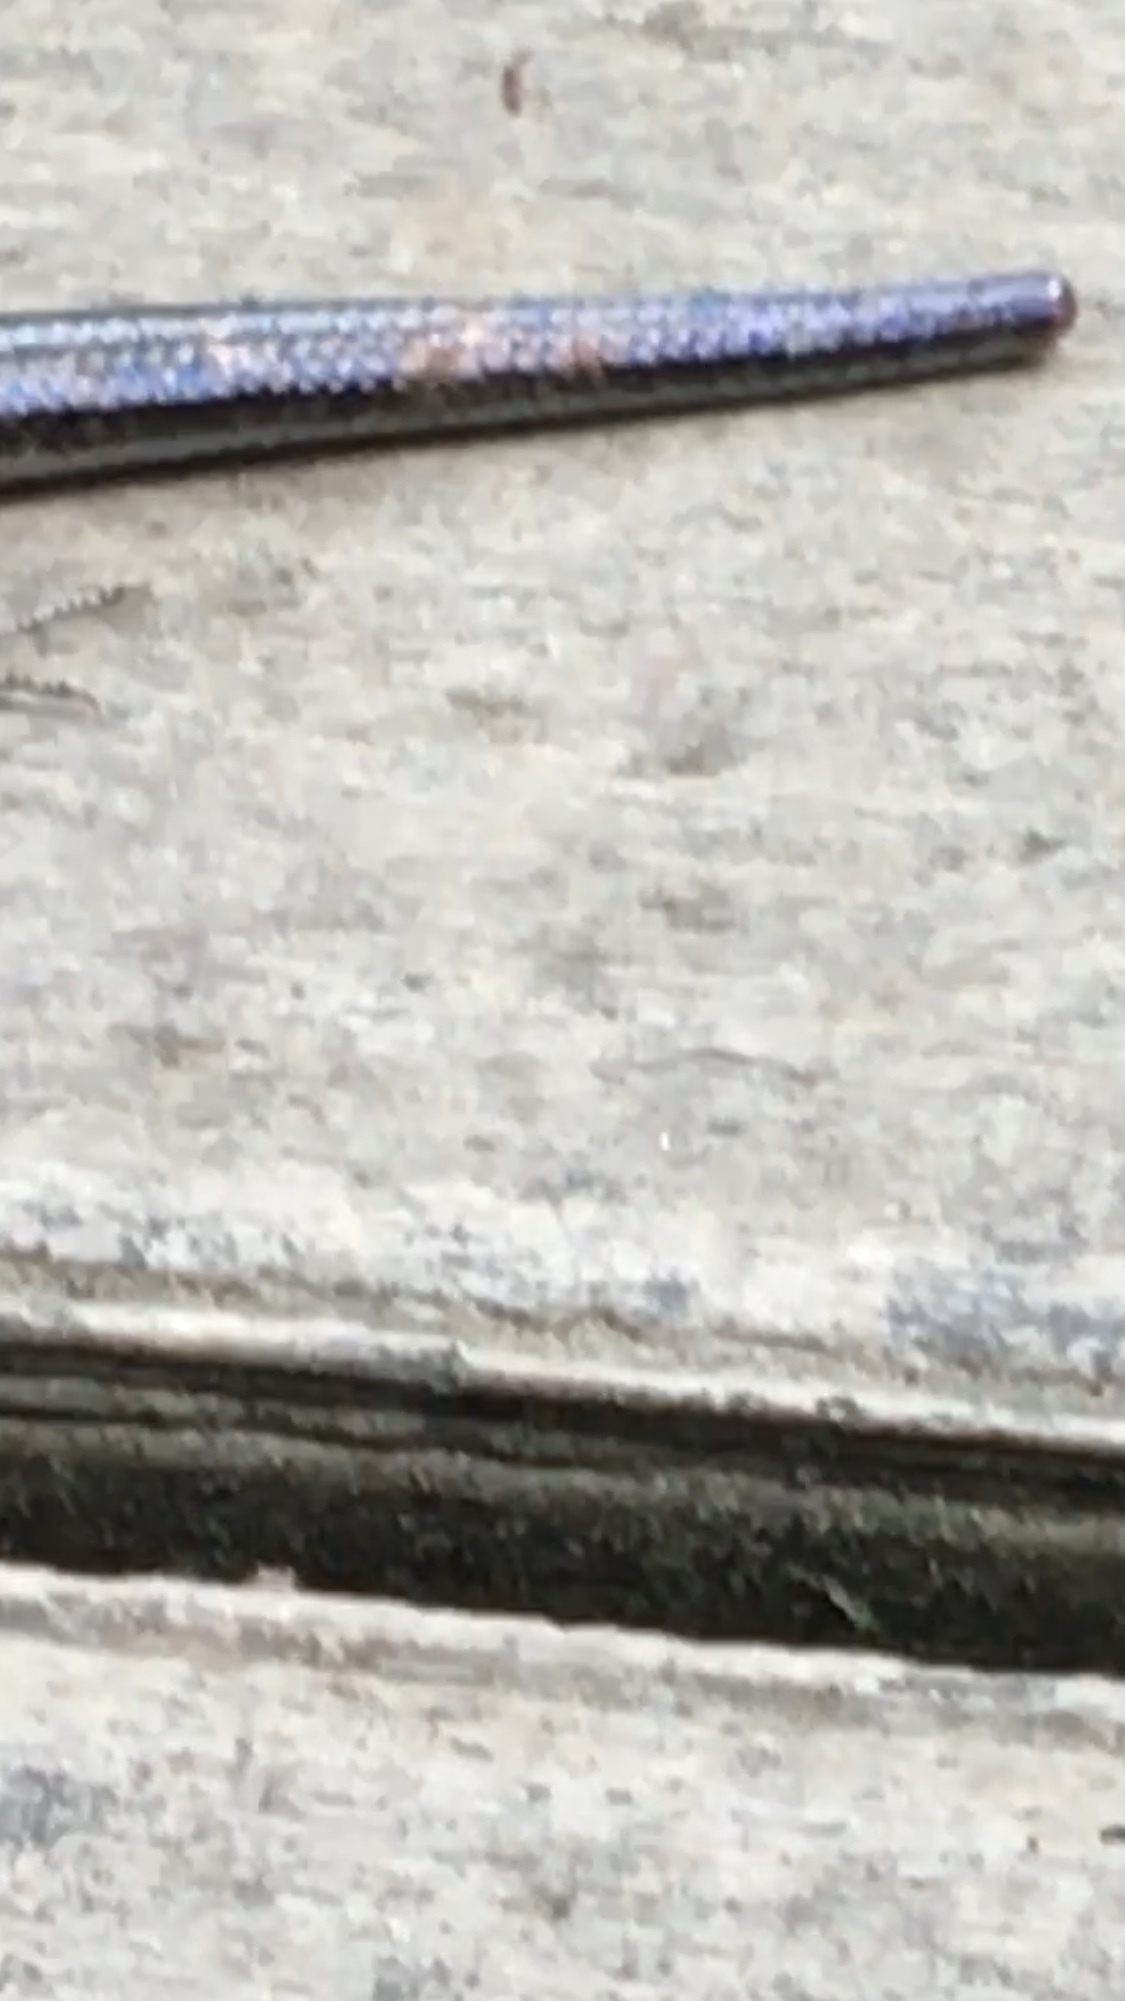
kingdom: Animalia
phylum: Chordata
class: Squamata
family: Scincidae
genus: Plestiodon
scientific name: Plestiodon fasciatus
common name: Five-lined skink
